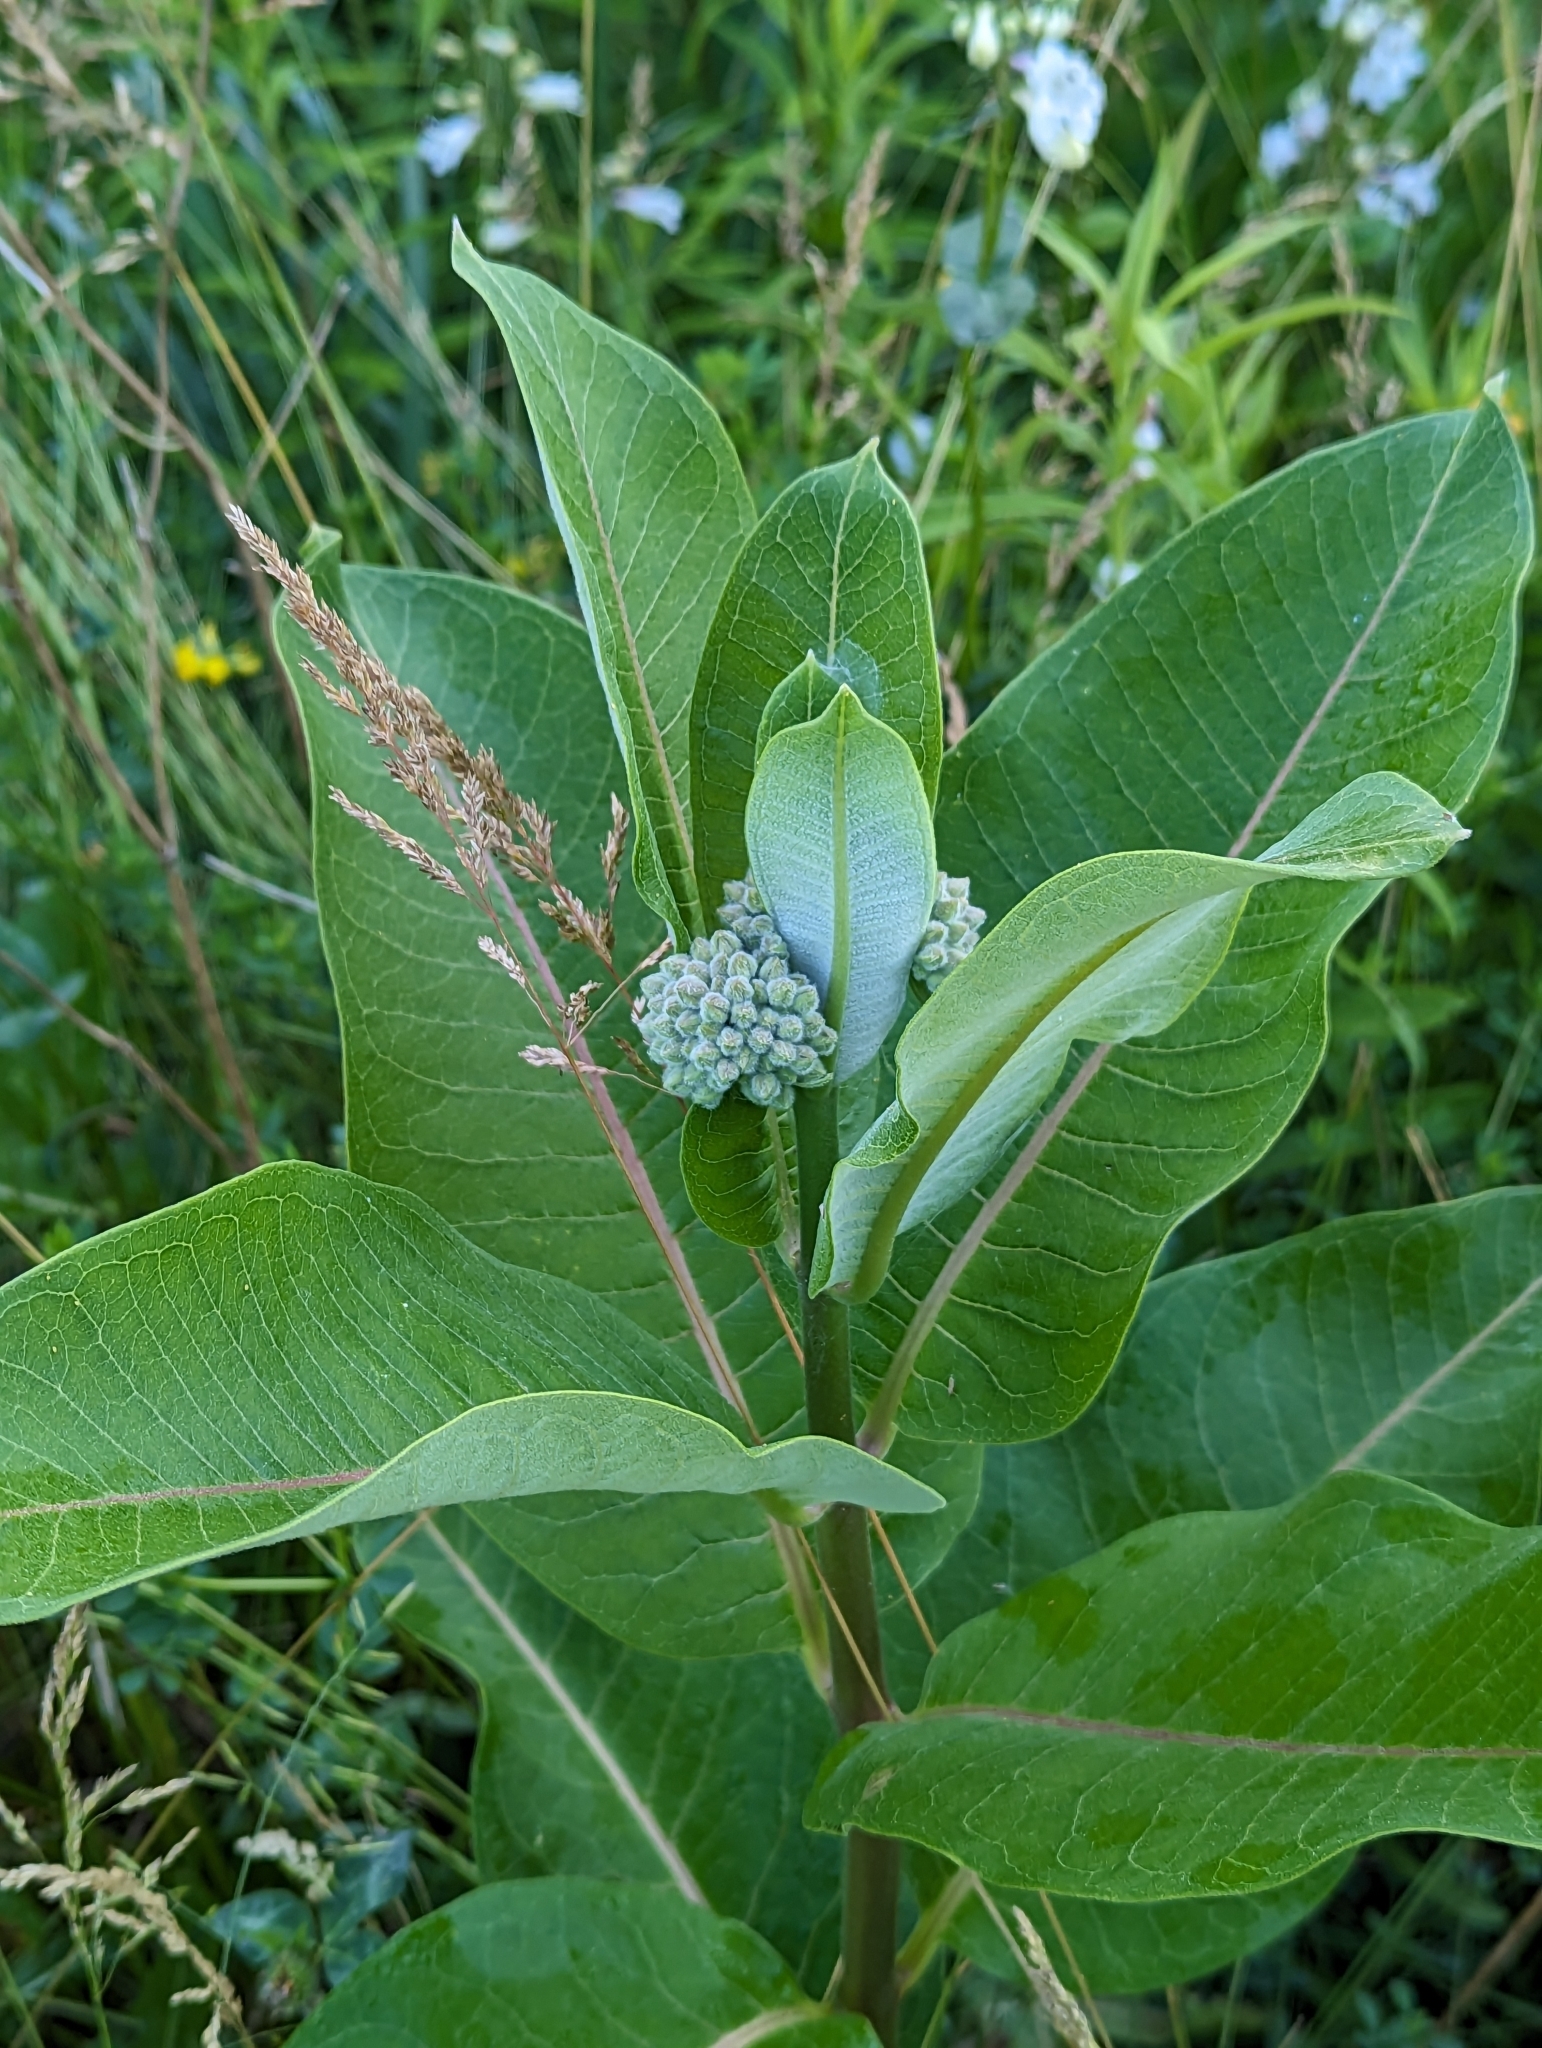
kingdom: Plantae
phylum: Tracheophyta
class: Magnoliopsida
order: Gentianales
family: Apocynaceae
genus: Asclepias
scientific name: Asclepias syriaca
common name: Common milkweed
